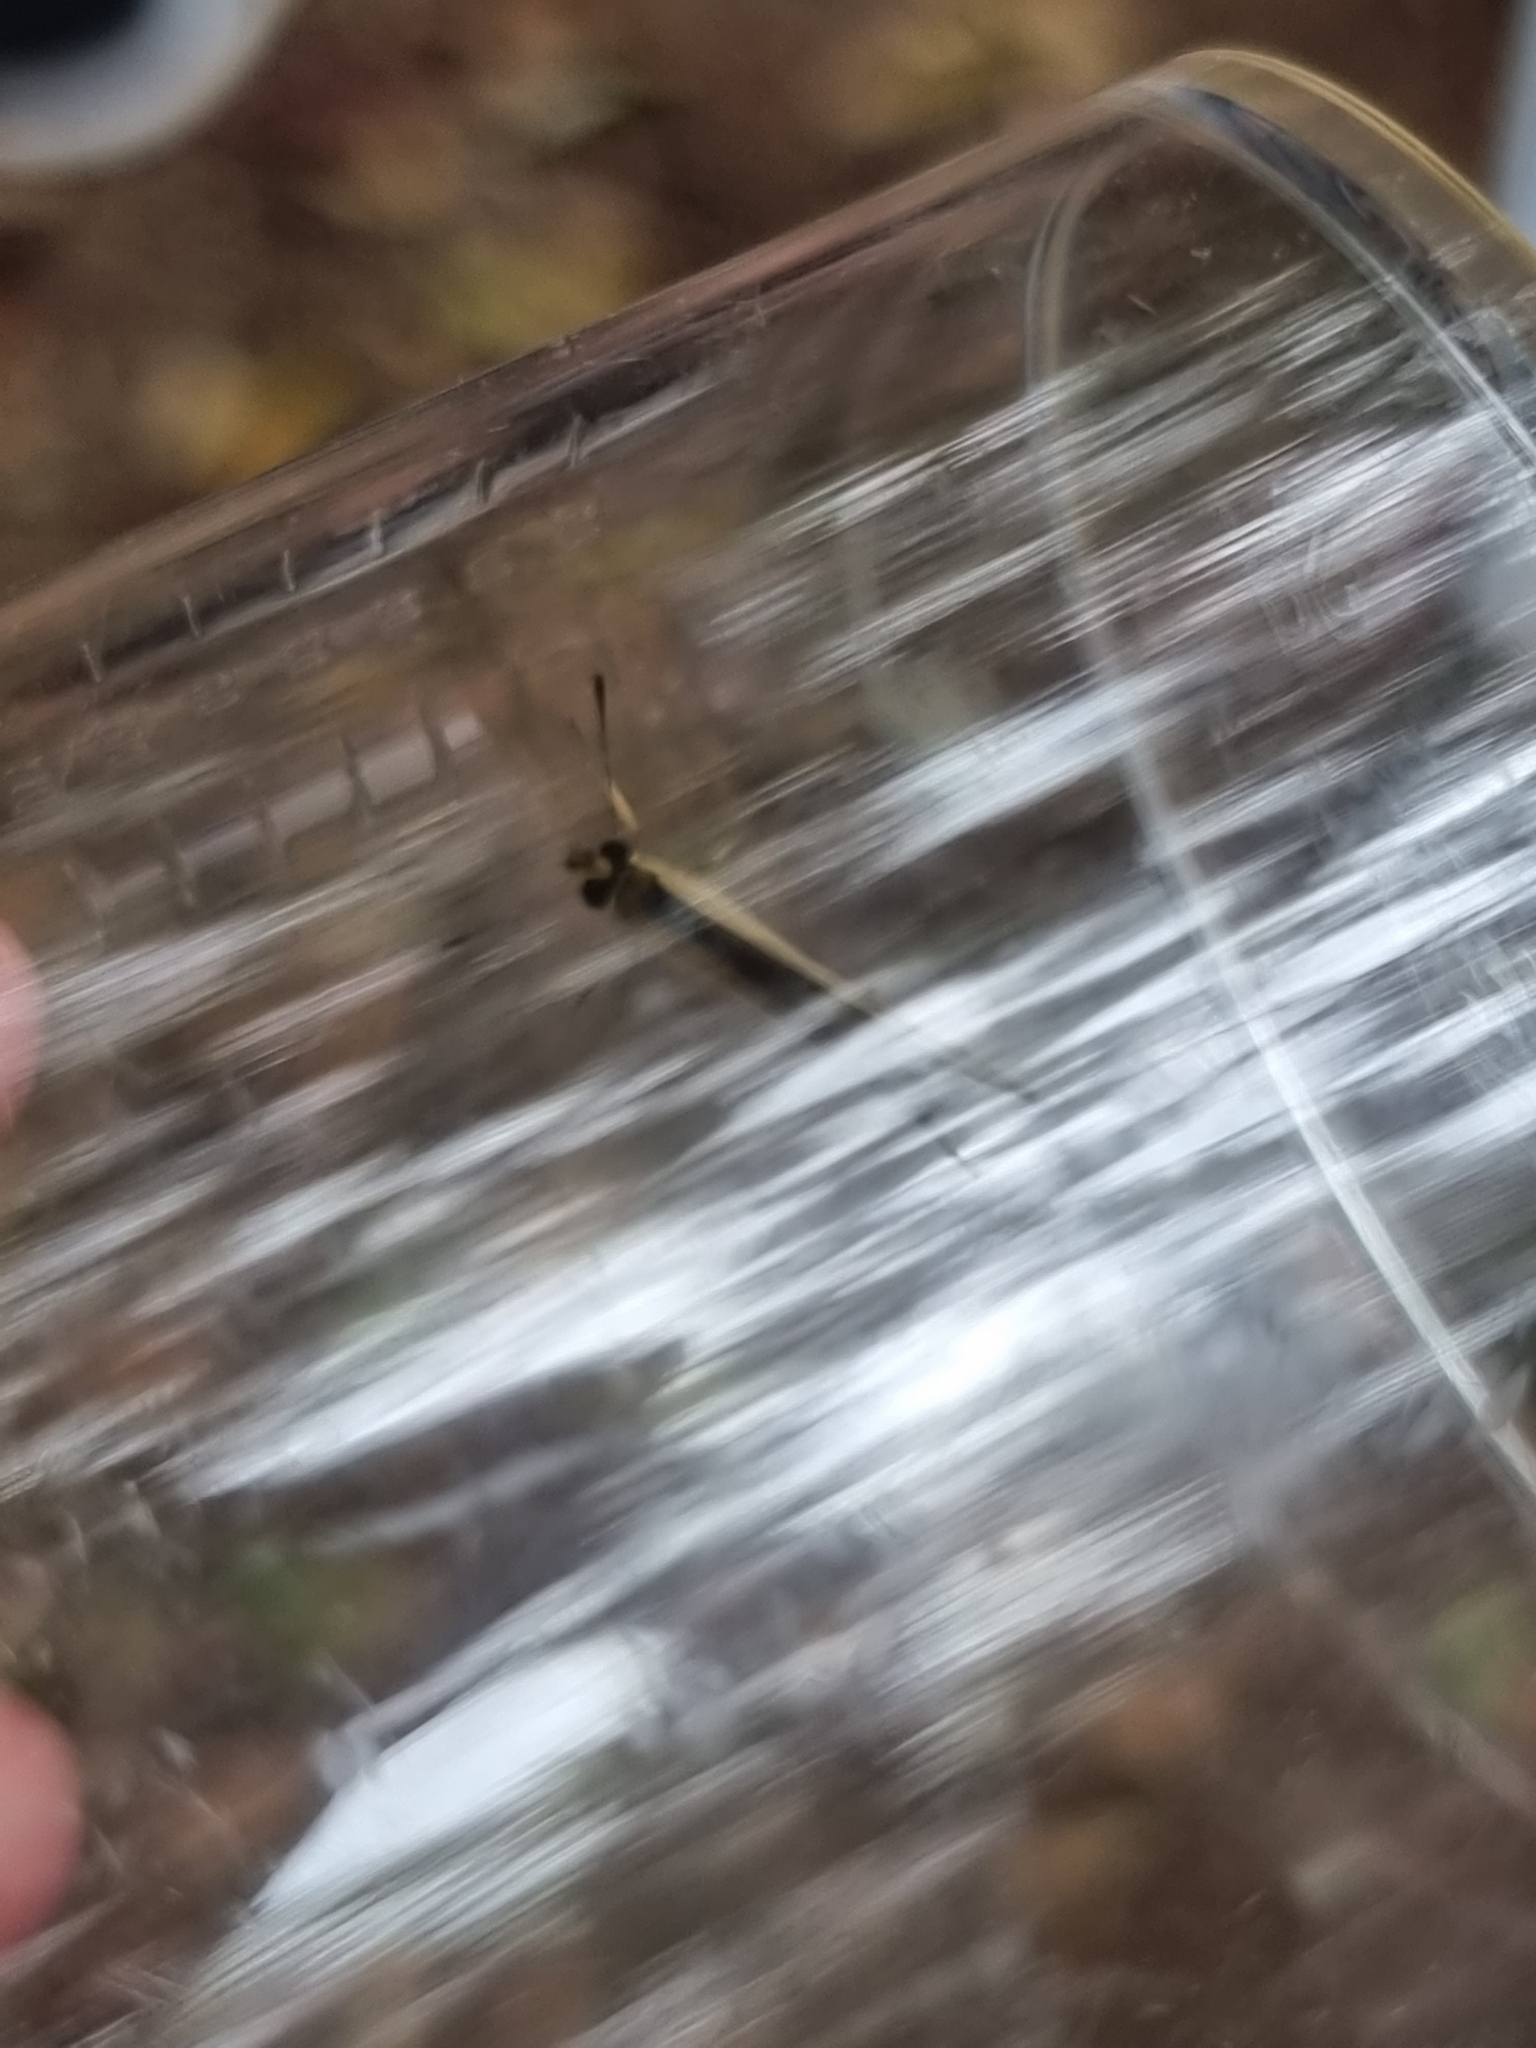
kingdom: Animalia
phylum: Arthropoda
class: Insecta
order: Lepidoptera
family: Nymphalidae
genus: Hypocysta
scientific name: Hypocysta metirius
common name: Brown ringlet
